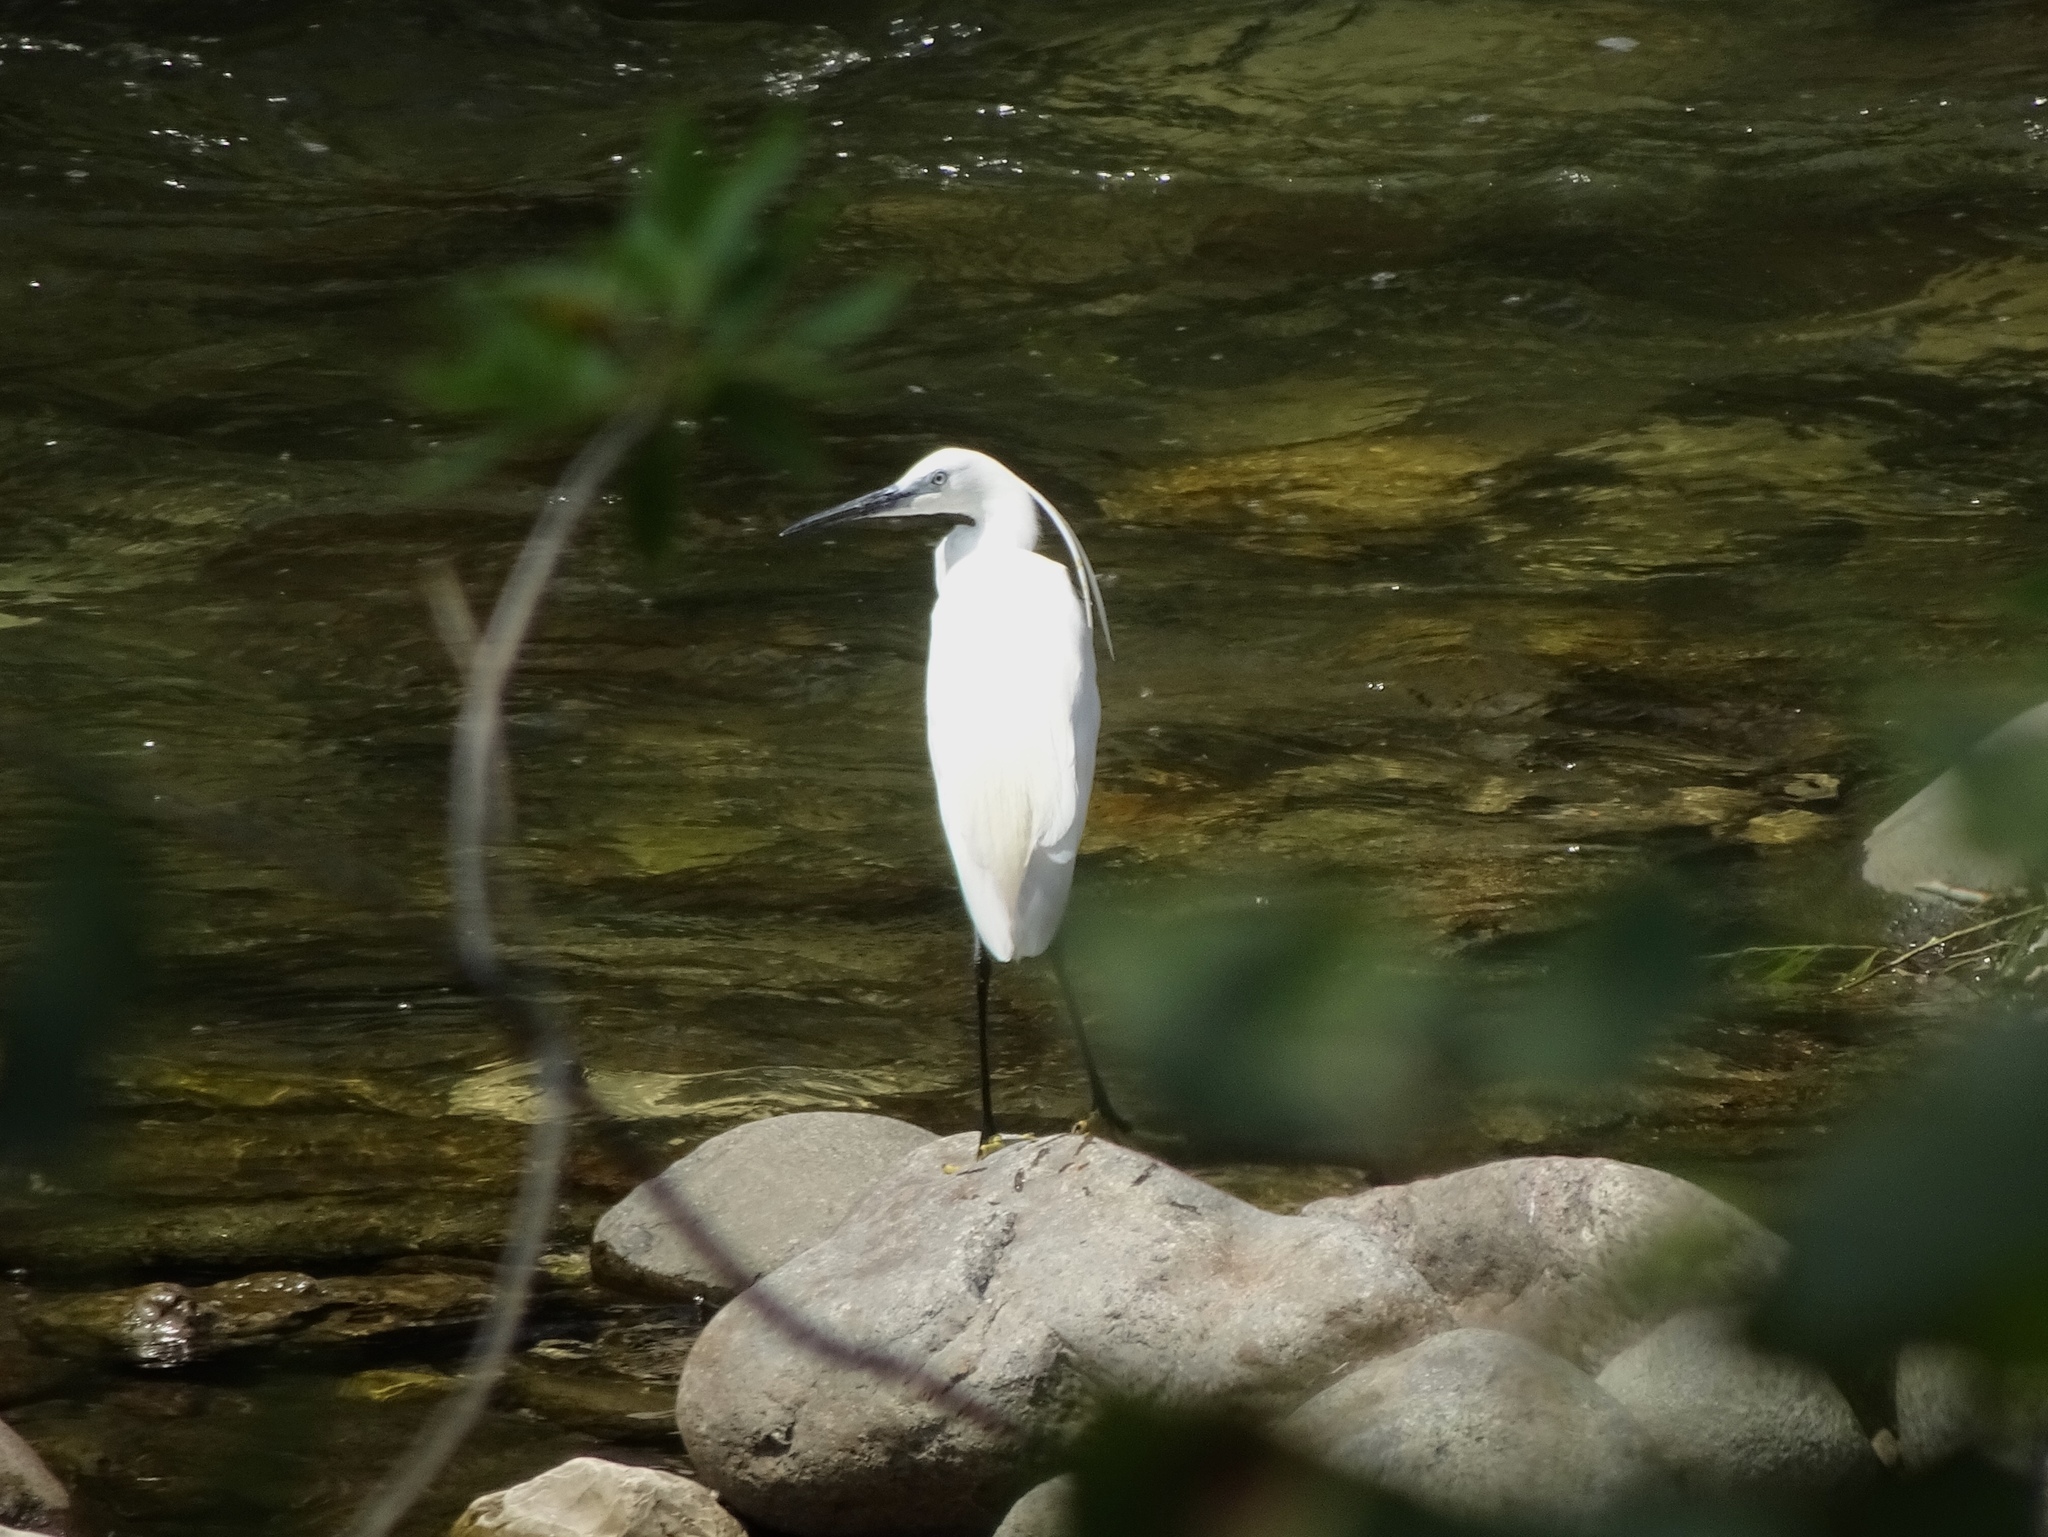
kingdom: Animalia
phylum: Chordata
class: Aves
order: Pelecaniformes
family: Ardeidae
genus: Egretta
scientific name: Egretta garzetta
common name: Little egret
